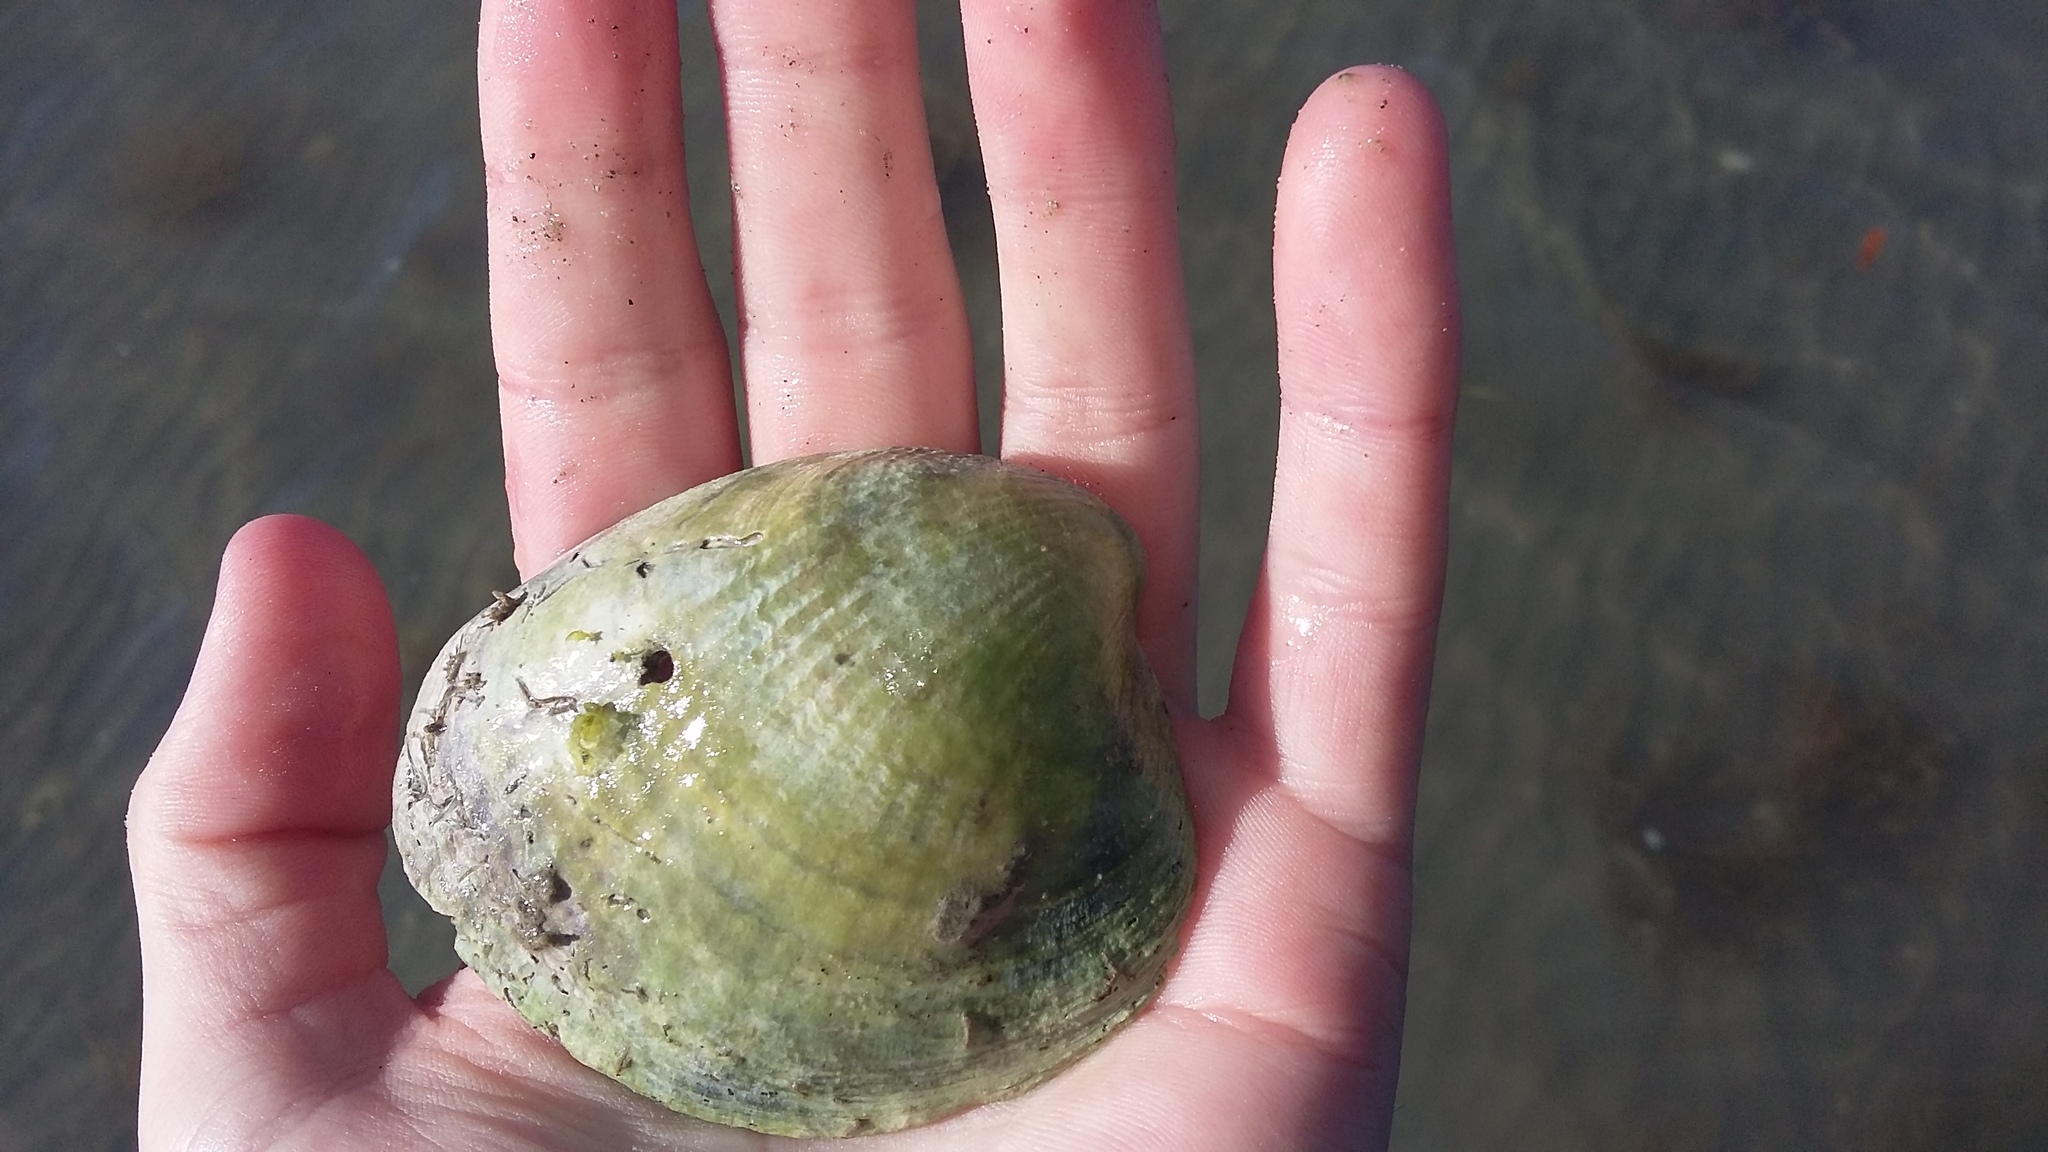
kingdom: Animalia
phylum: Mollusca
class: Bivalvia
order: Venerida
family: Veneridae
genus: Austrovenus
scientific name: Austrovenus stutchburyi
